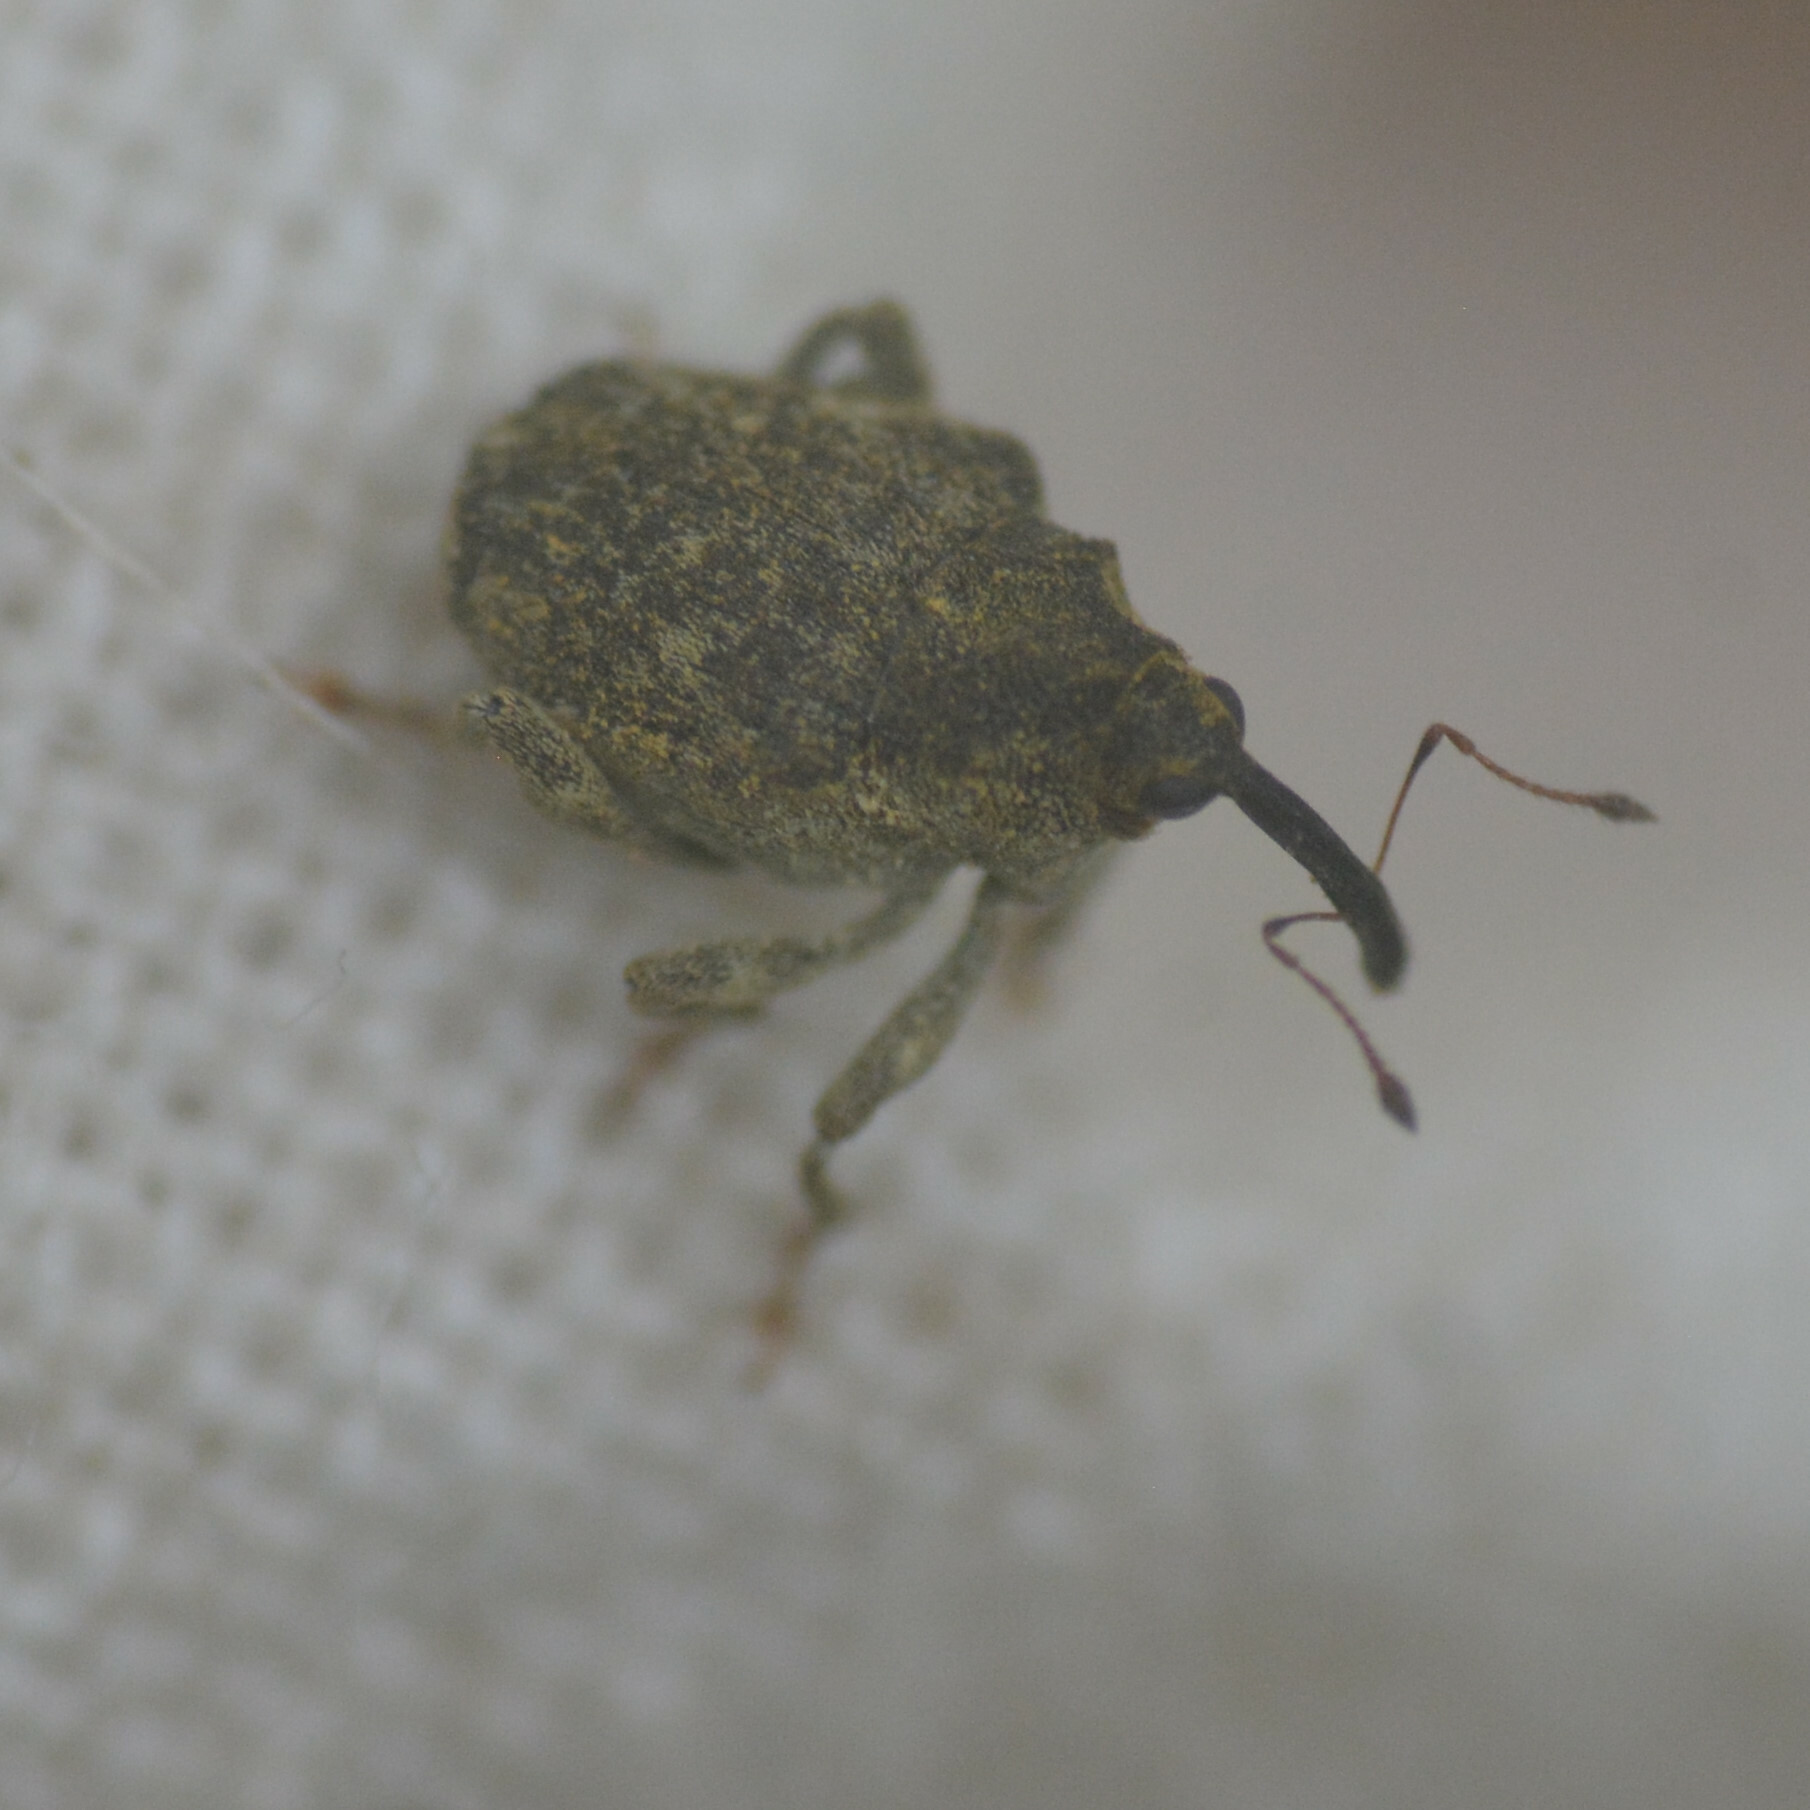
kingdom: Animalia
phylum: Arthropoda
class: Insecta
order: Coleoptera
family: Curculionidae
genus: Parethelcus
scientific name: Parethelcus pollinarius
